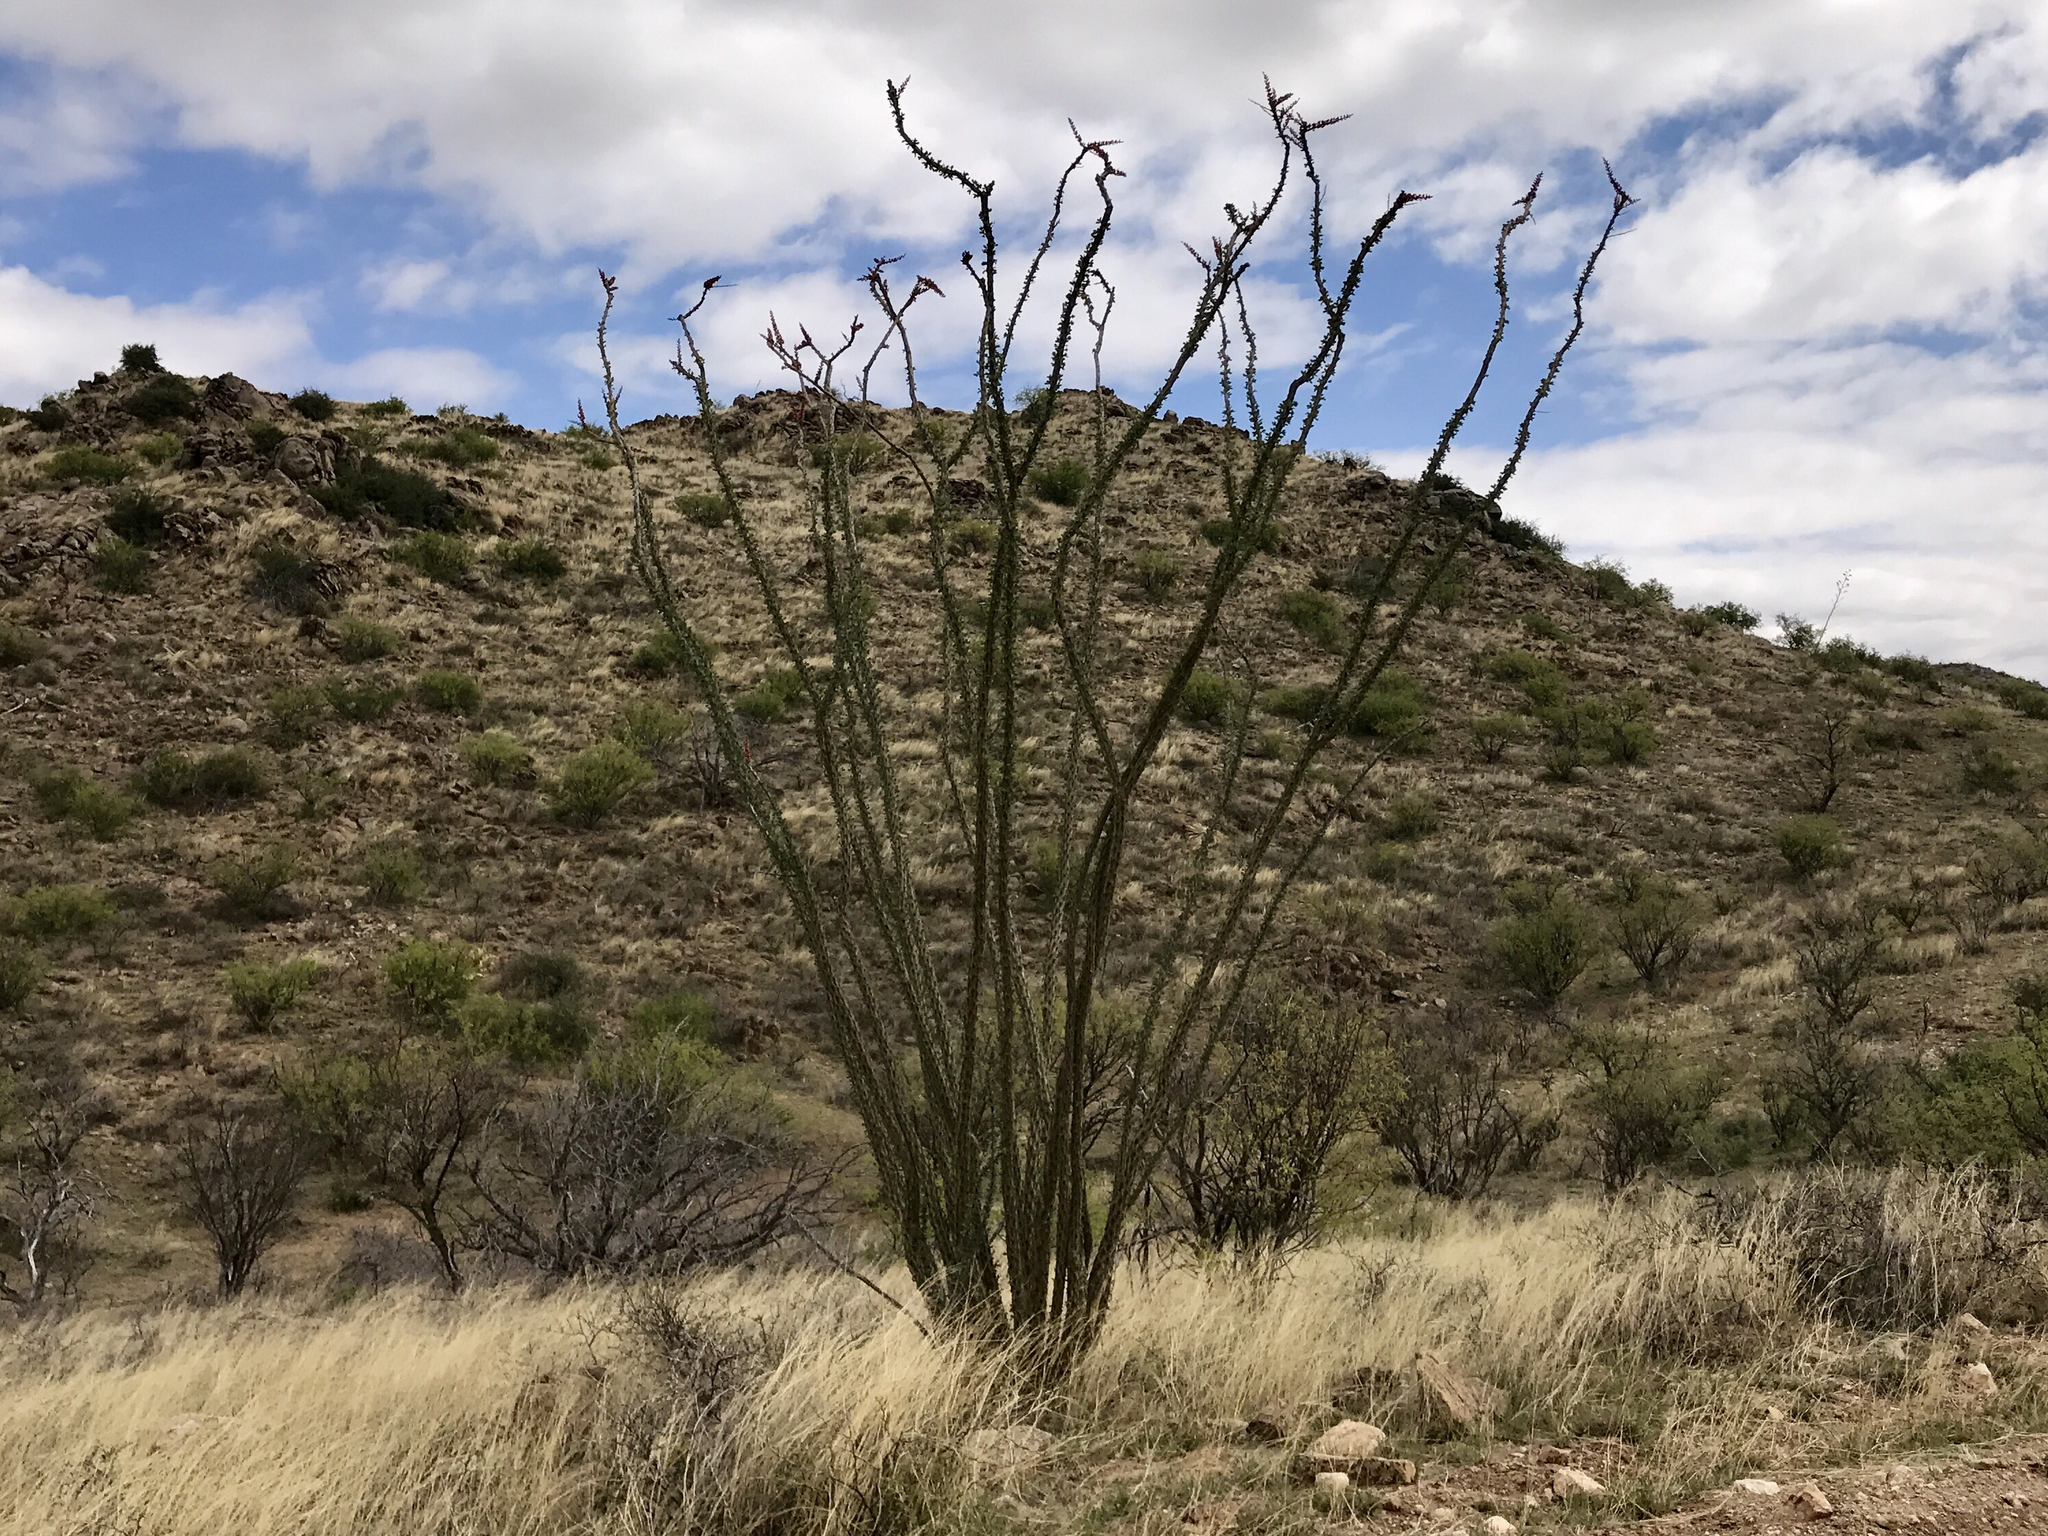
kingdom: Plantae
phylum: Tracheophyta
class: Magnoliopsida
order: Ericales
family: Fouquieriaceae
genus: Fouquieria
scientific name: Fouquieria splendens
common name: Vine-cactus
